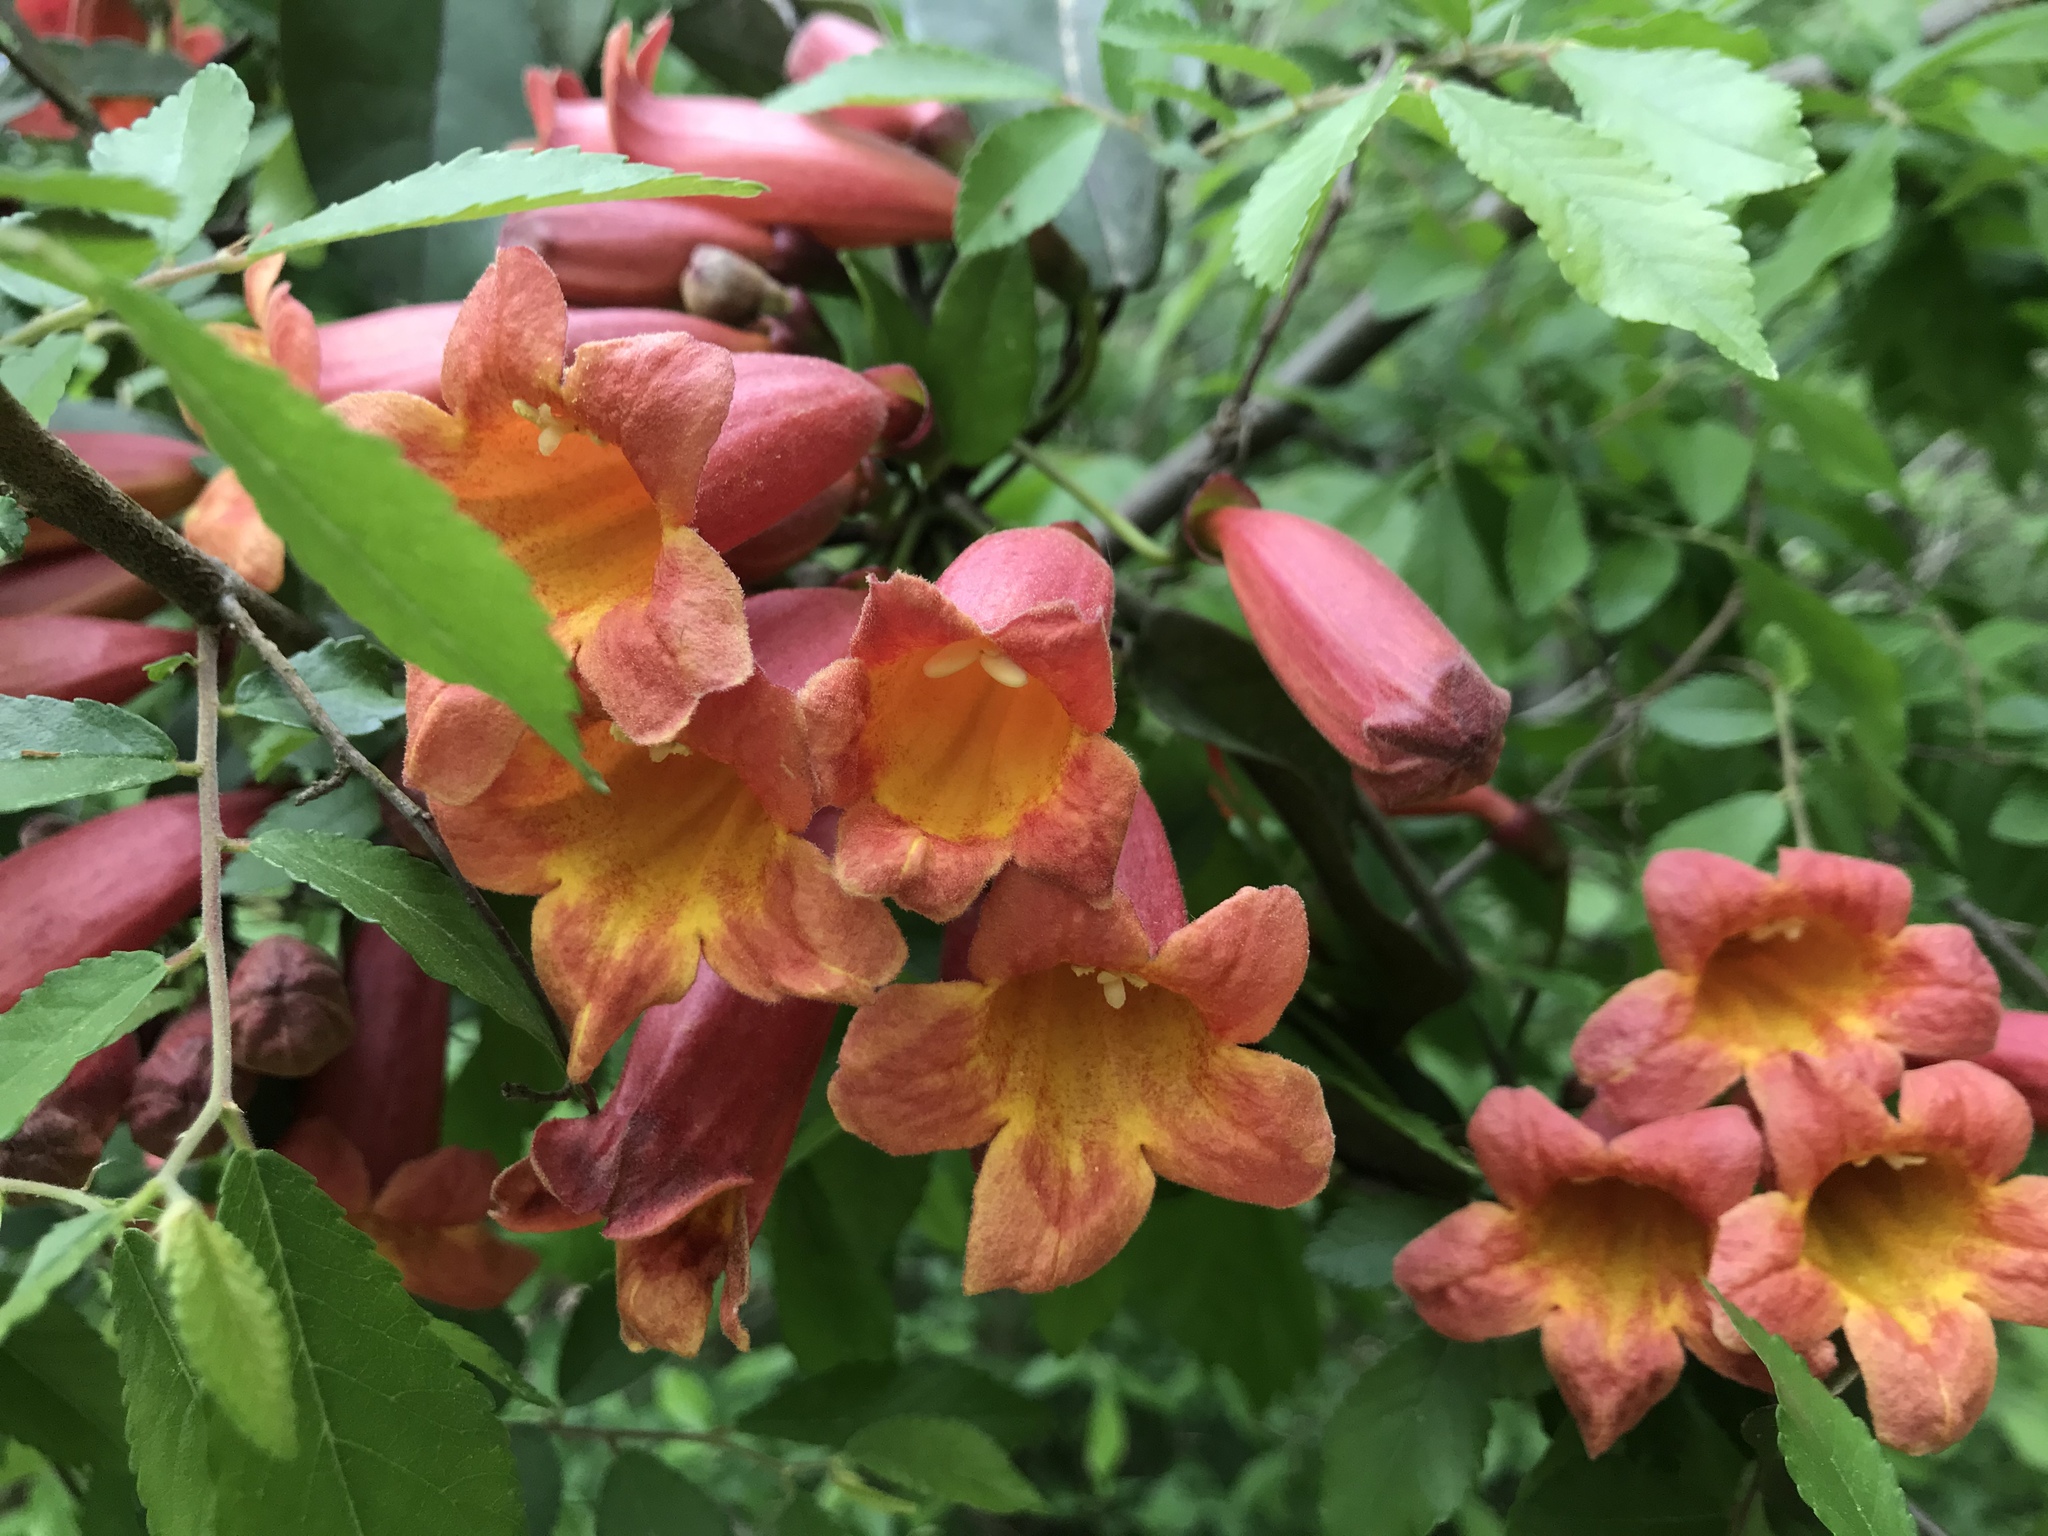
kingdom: Plantae
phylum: Tracheophyta
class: Magnoliopsida
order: Lamiales
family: Bignoniaceae
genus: Bignonia
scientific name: Bignonia capreolata
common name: Crossvine
